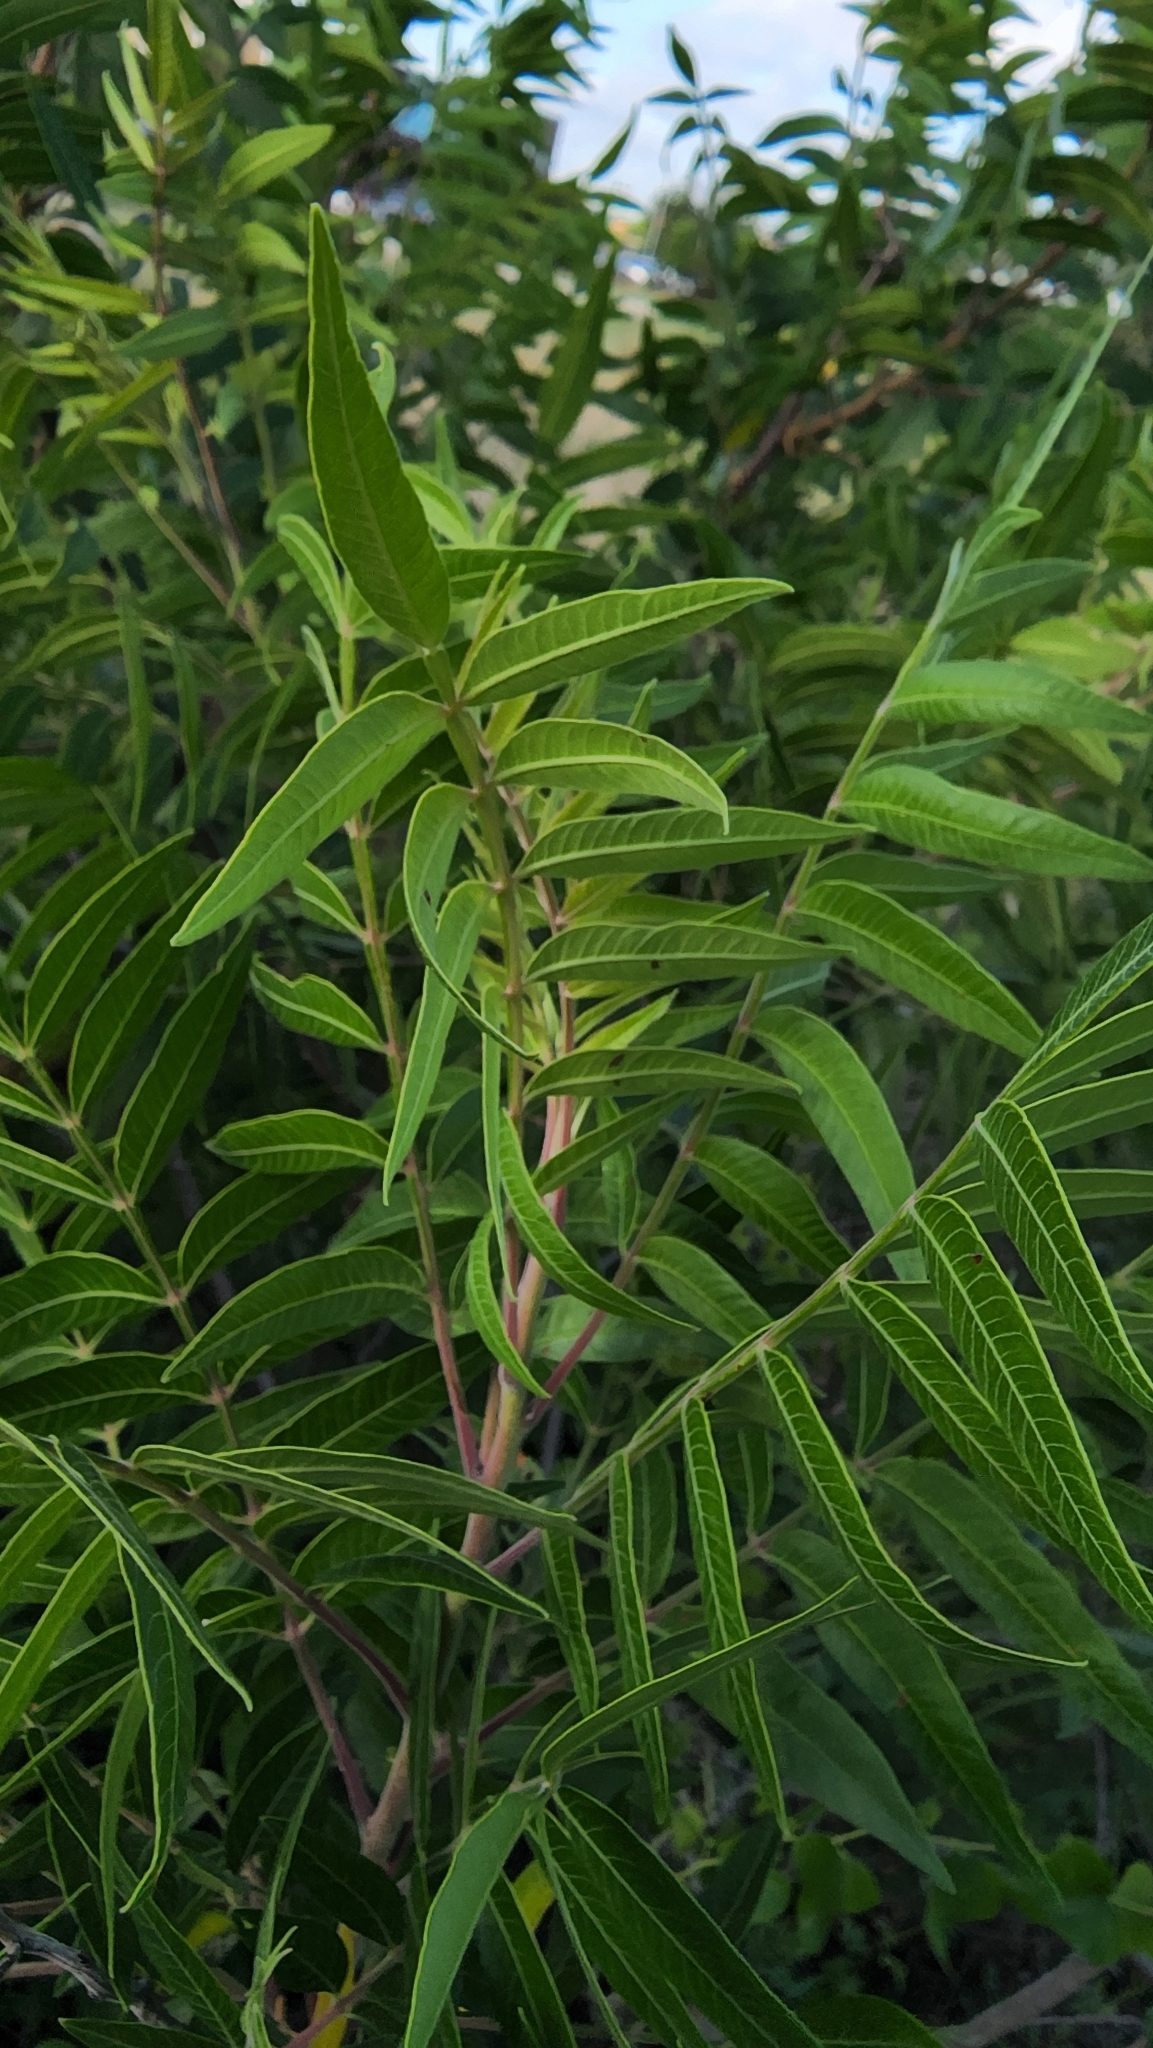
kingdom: Plantae
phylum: Tracheophyta
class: Magnoliopsida
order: Sapindales
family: Anacardiaceae
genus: Rhus
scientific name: Rhus lanceolata
